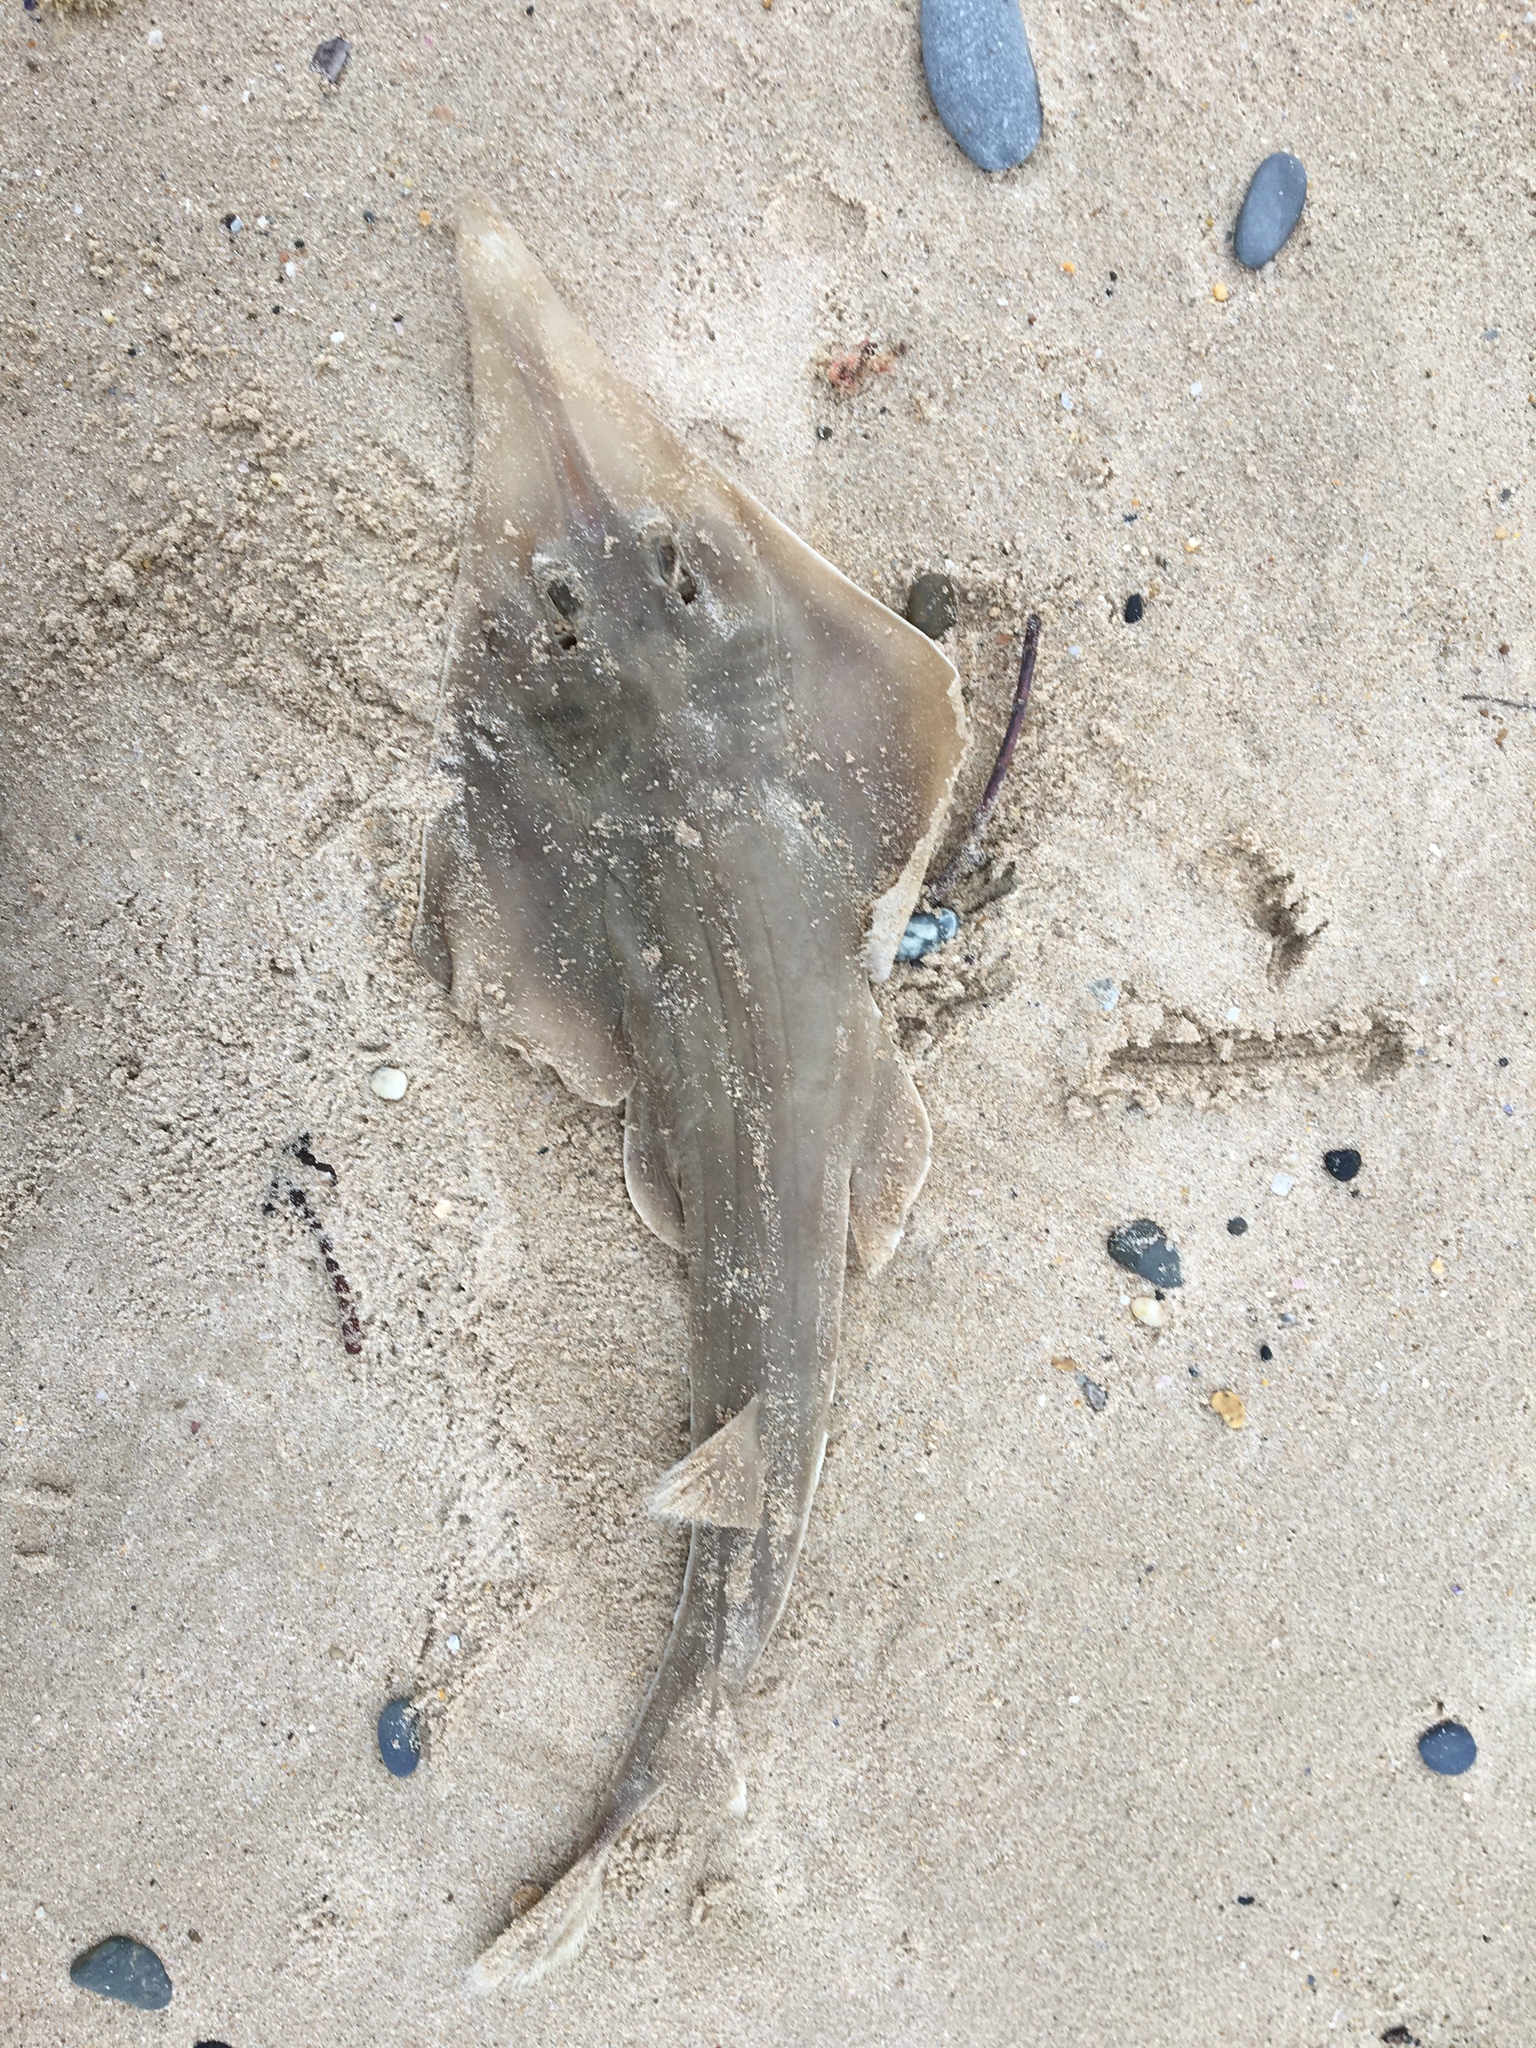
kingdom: Animalia
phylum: Chordata
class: Elasmobranchii
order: Rhinopristiformes
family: Rhinobatidae
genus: Aptychotrema
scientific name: Aptychotrema rostrata
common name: Eastern shovelnose ray
